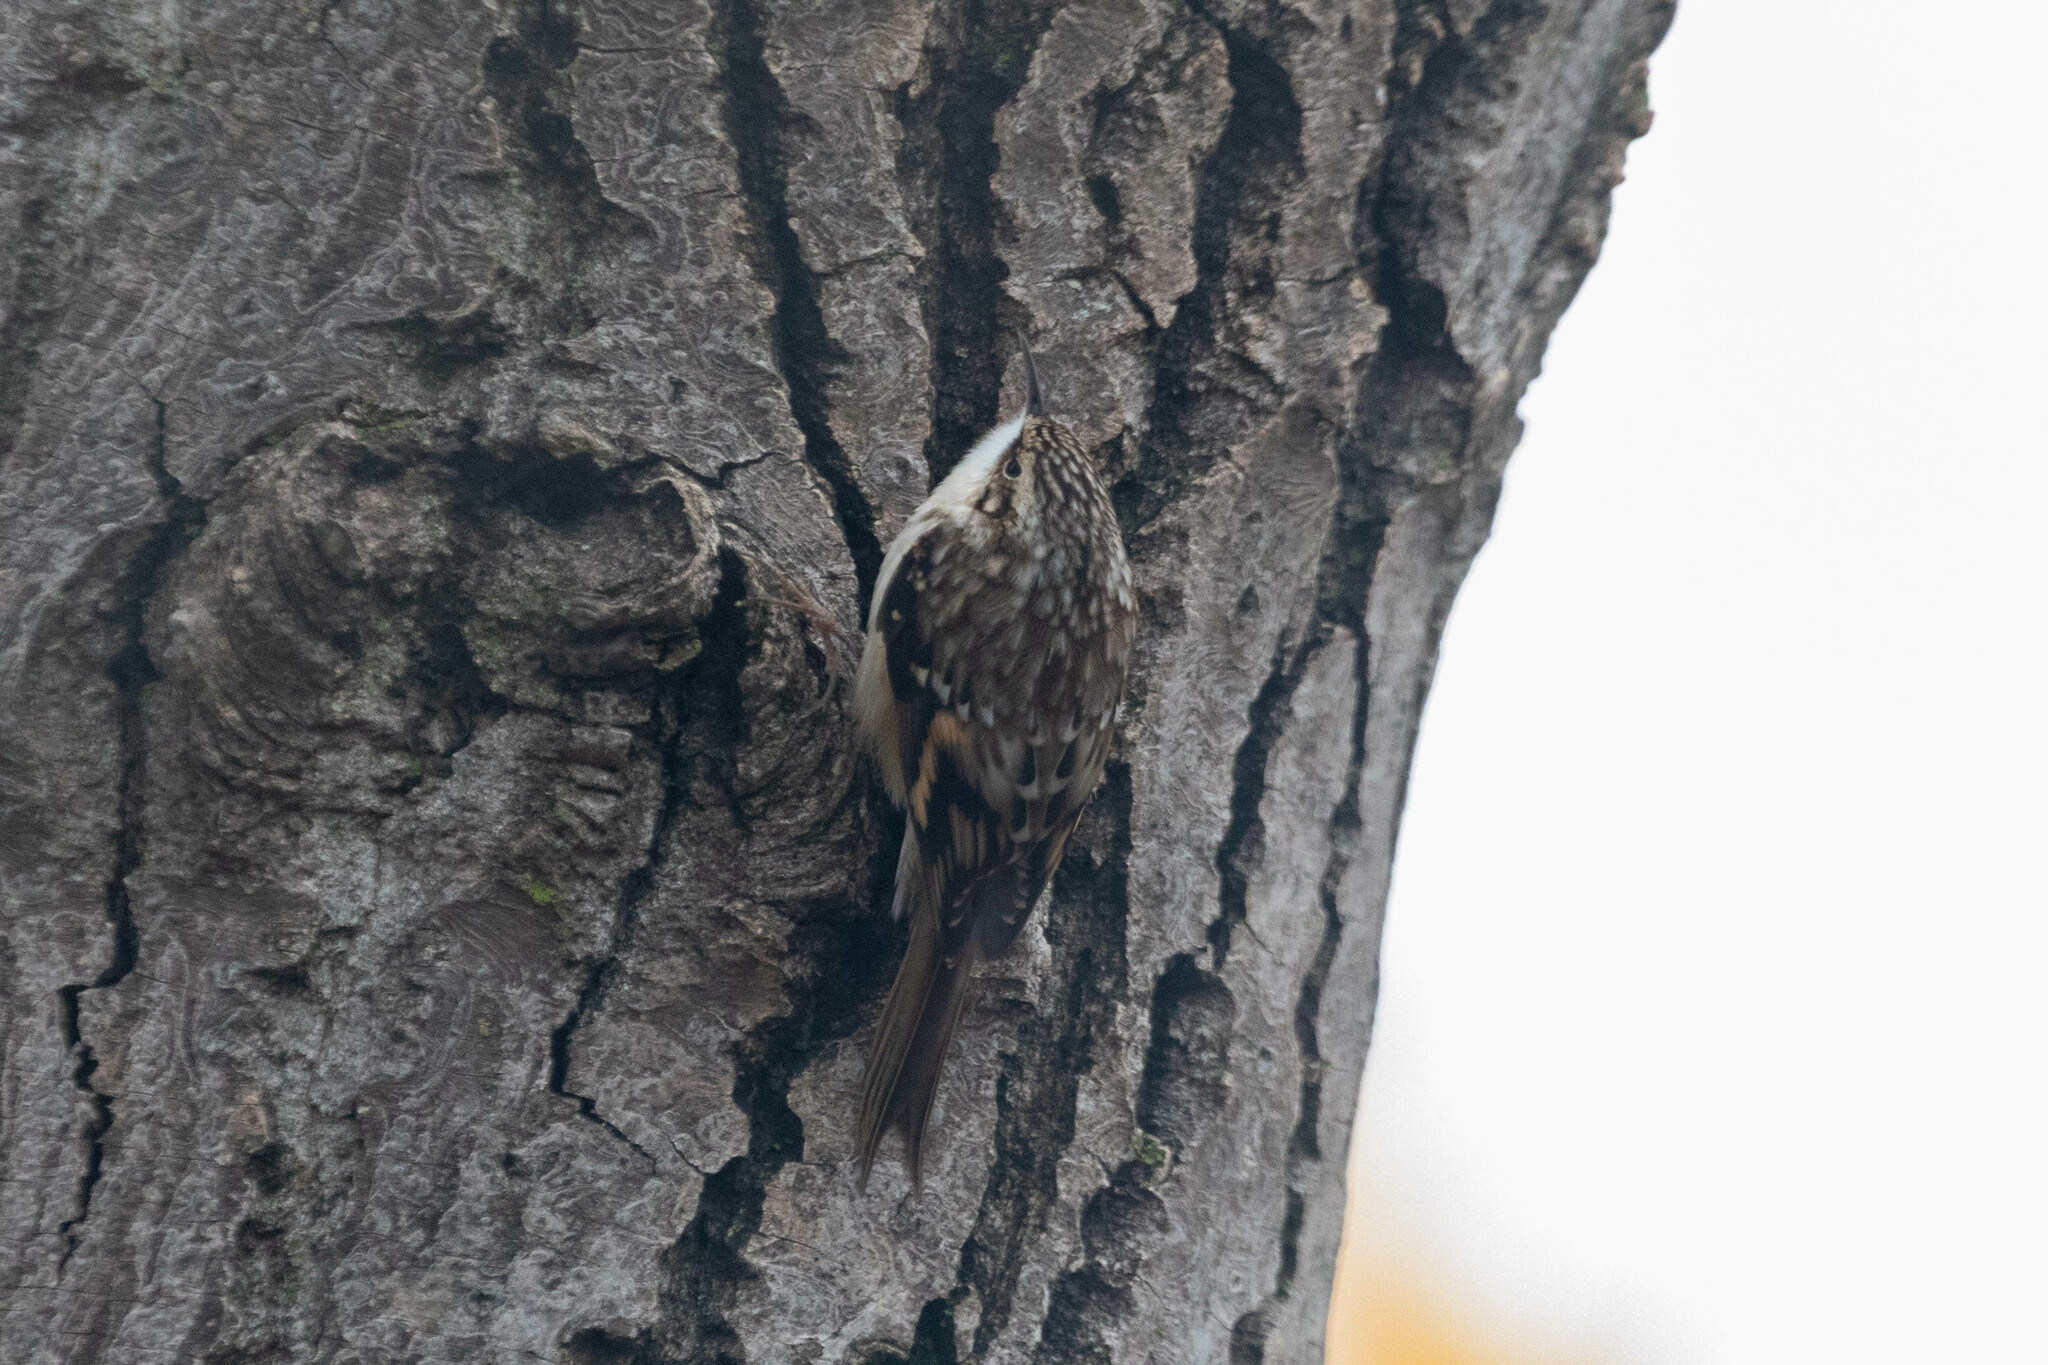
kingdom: Animalia
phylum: Chordata
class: Aves
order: Passeriformes
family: Certhiidae
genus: Certhia
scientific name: Certhia americana
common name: Brown creeper
